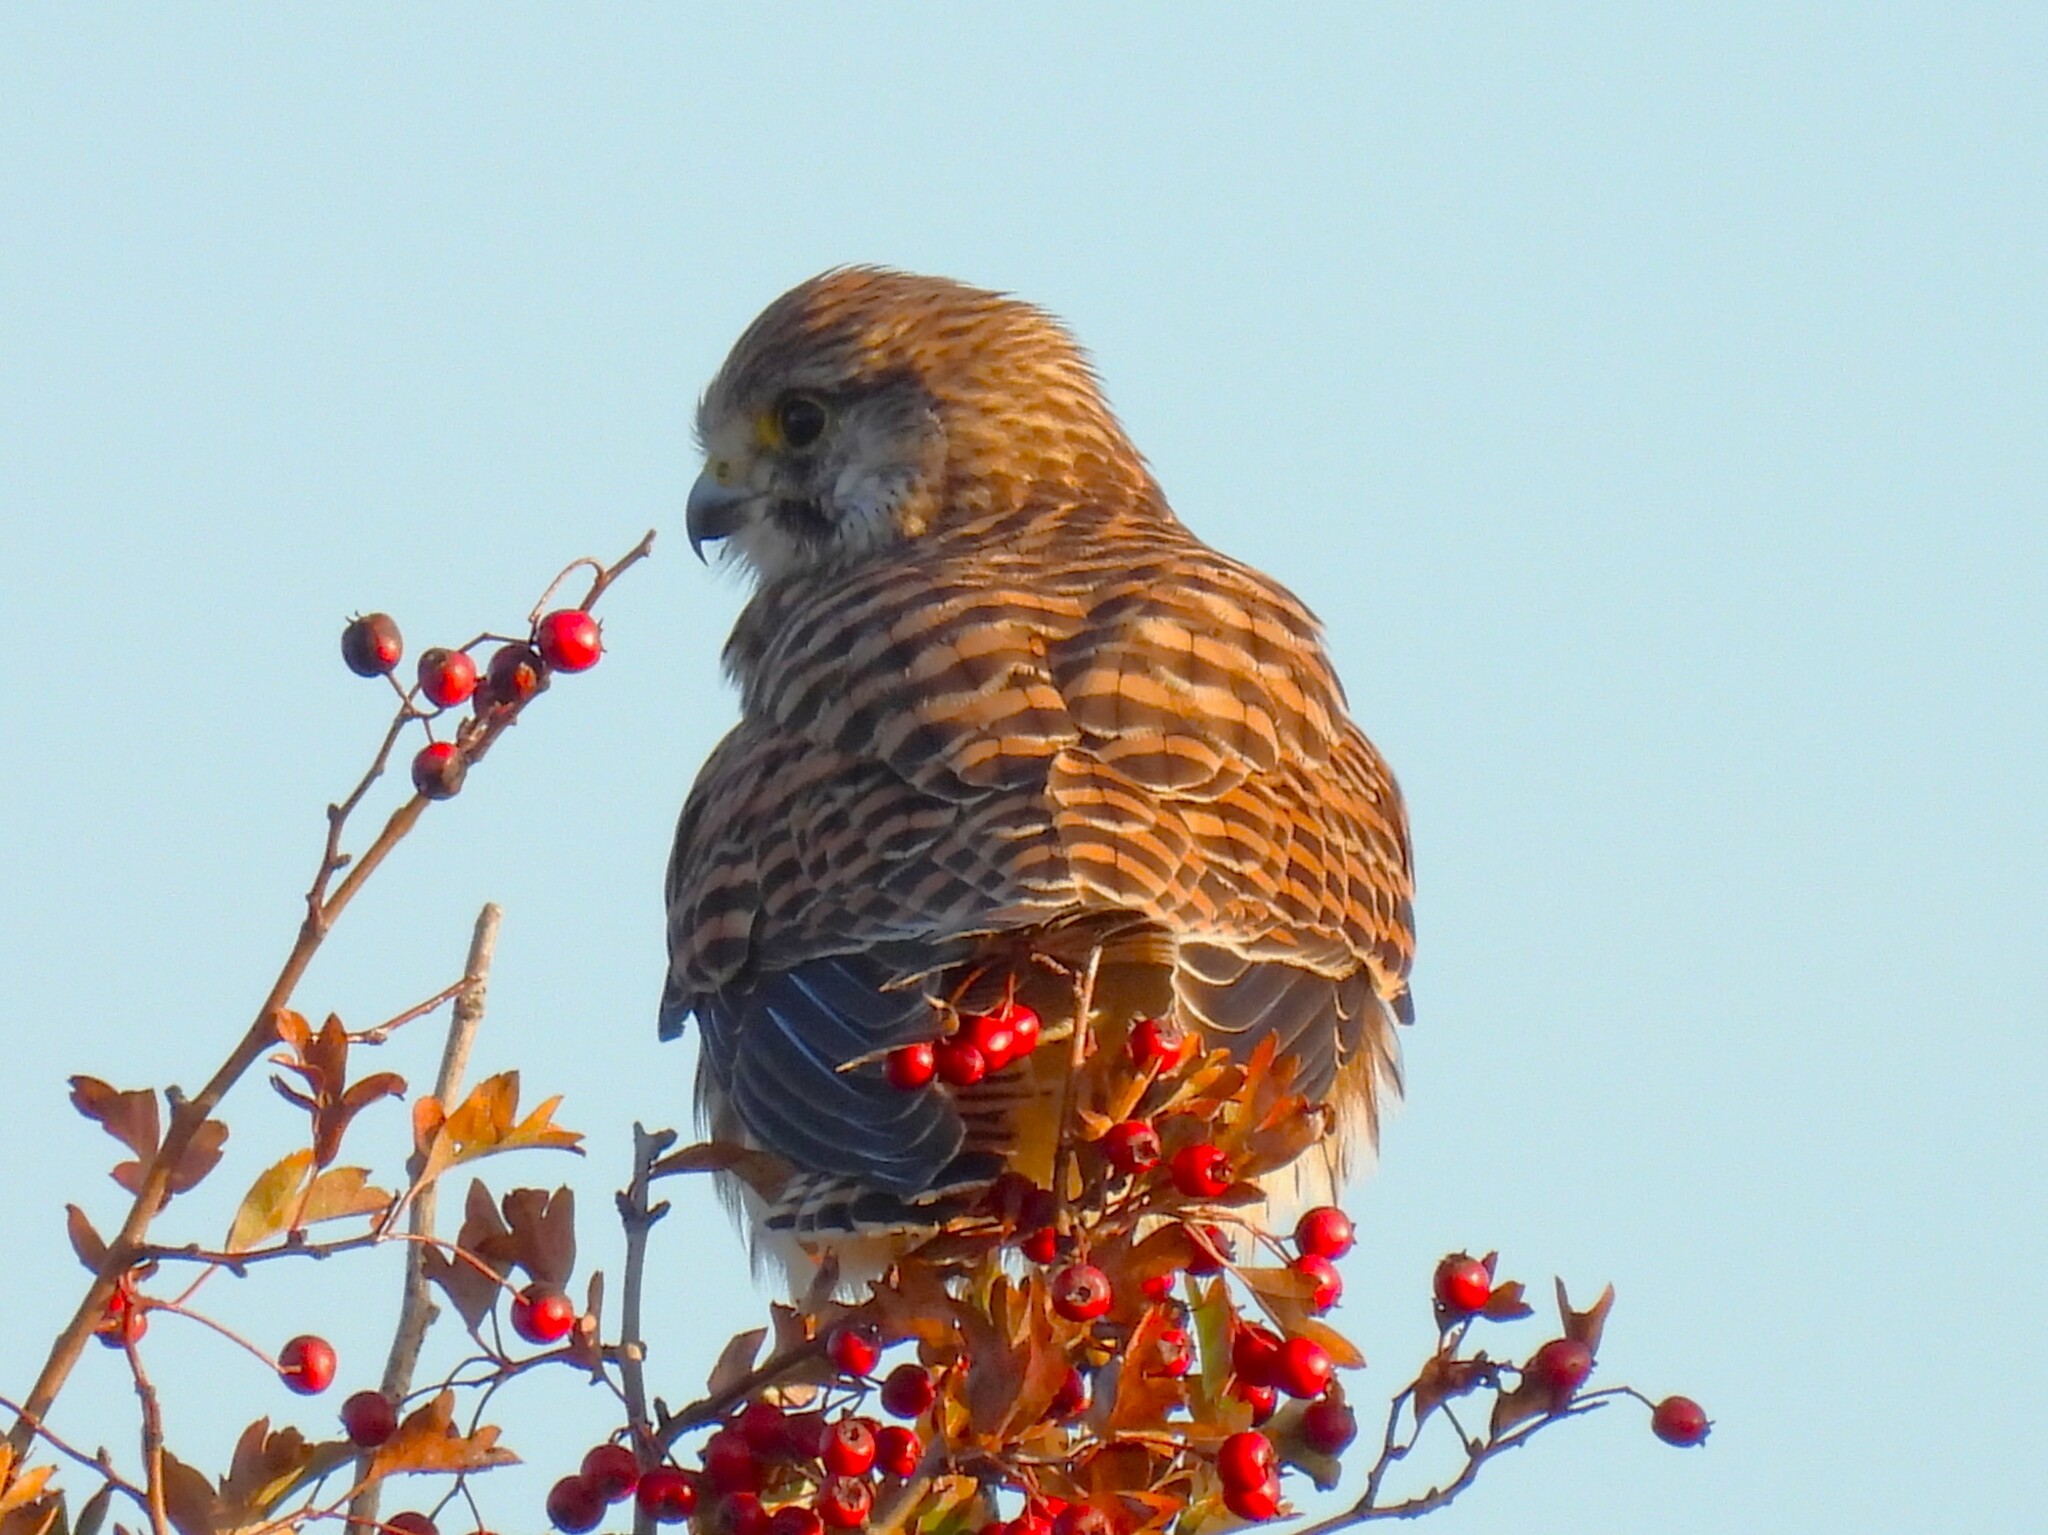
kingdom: Animalia
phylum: Chordata
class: Aves
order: Falconiformes
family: Falconidae
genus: Falco
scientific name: Falco tinnunculus
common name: Common kestrel
